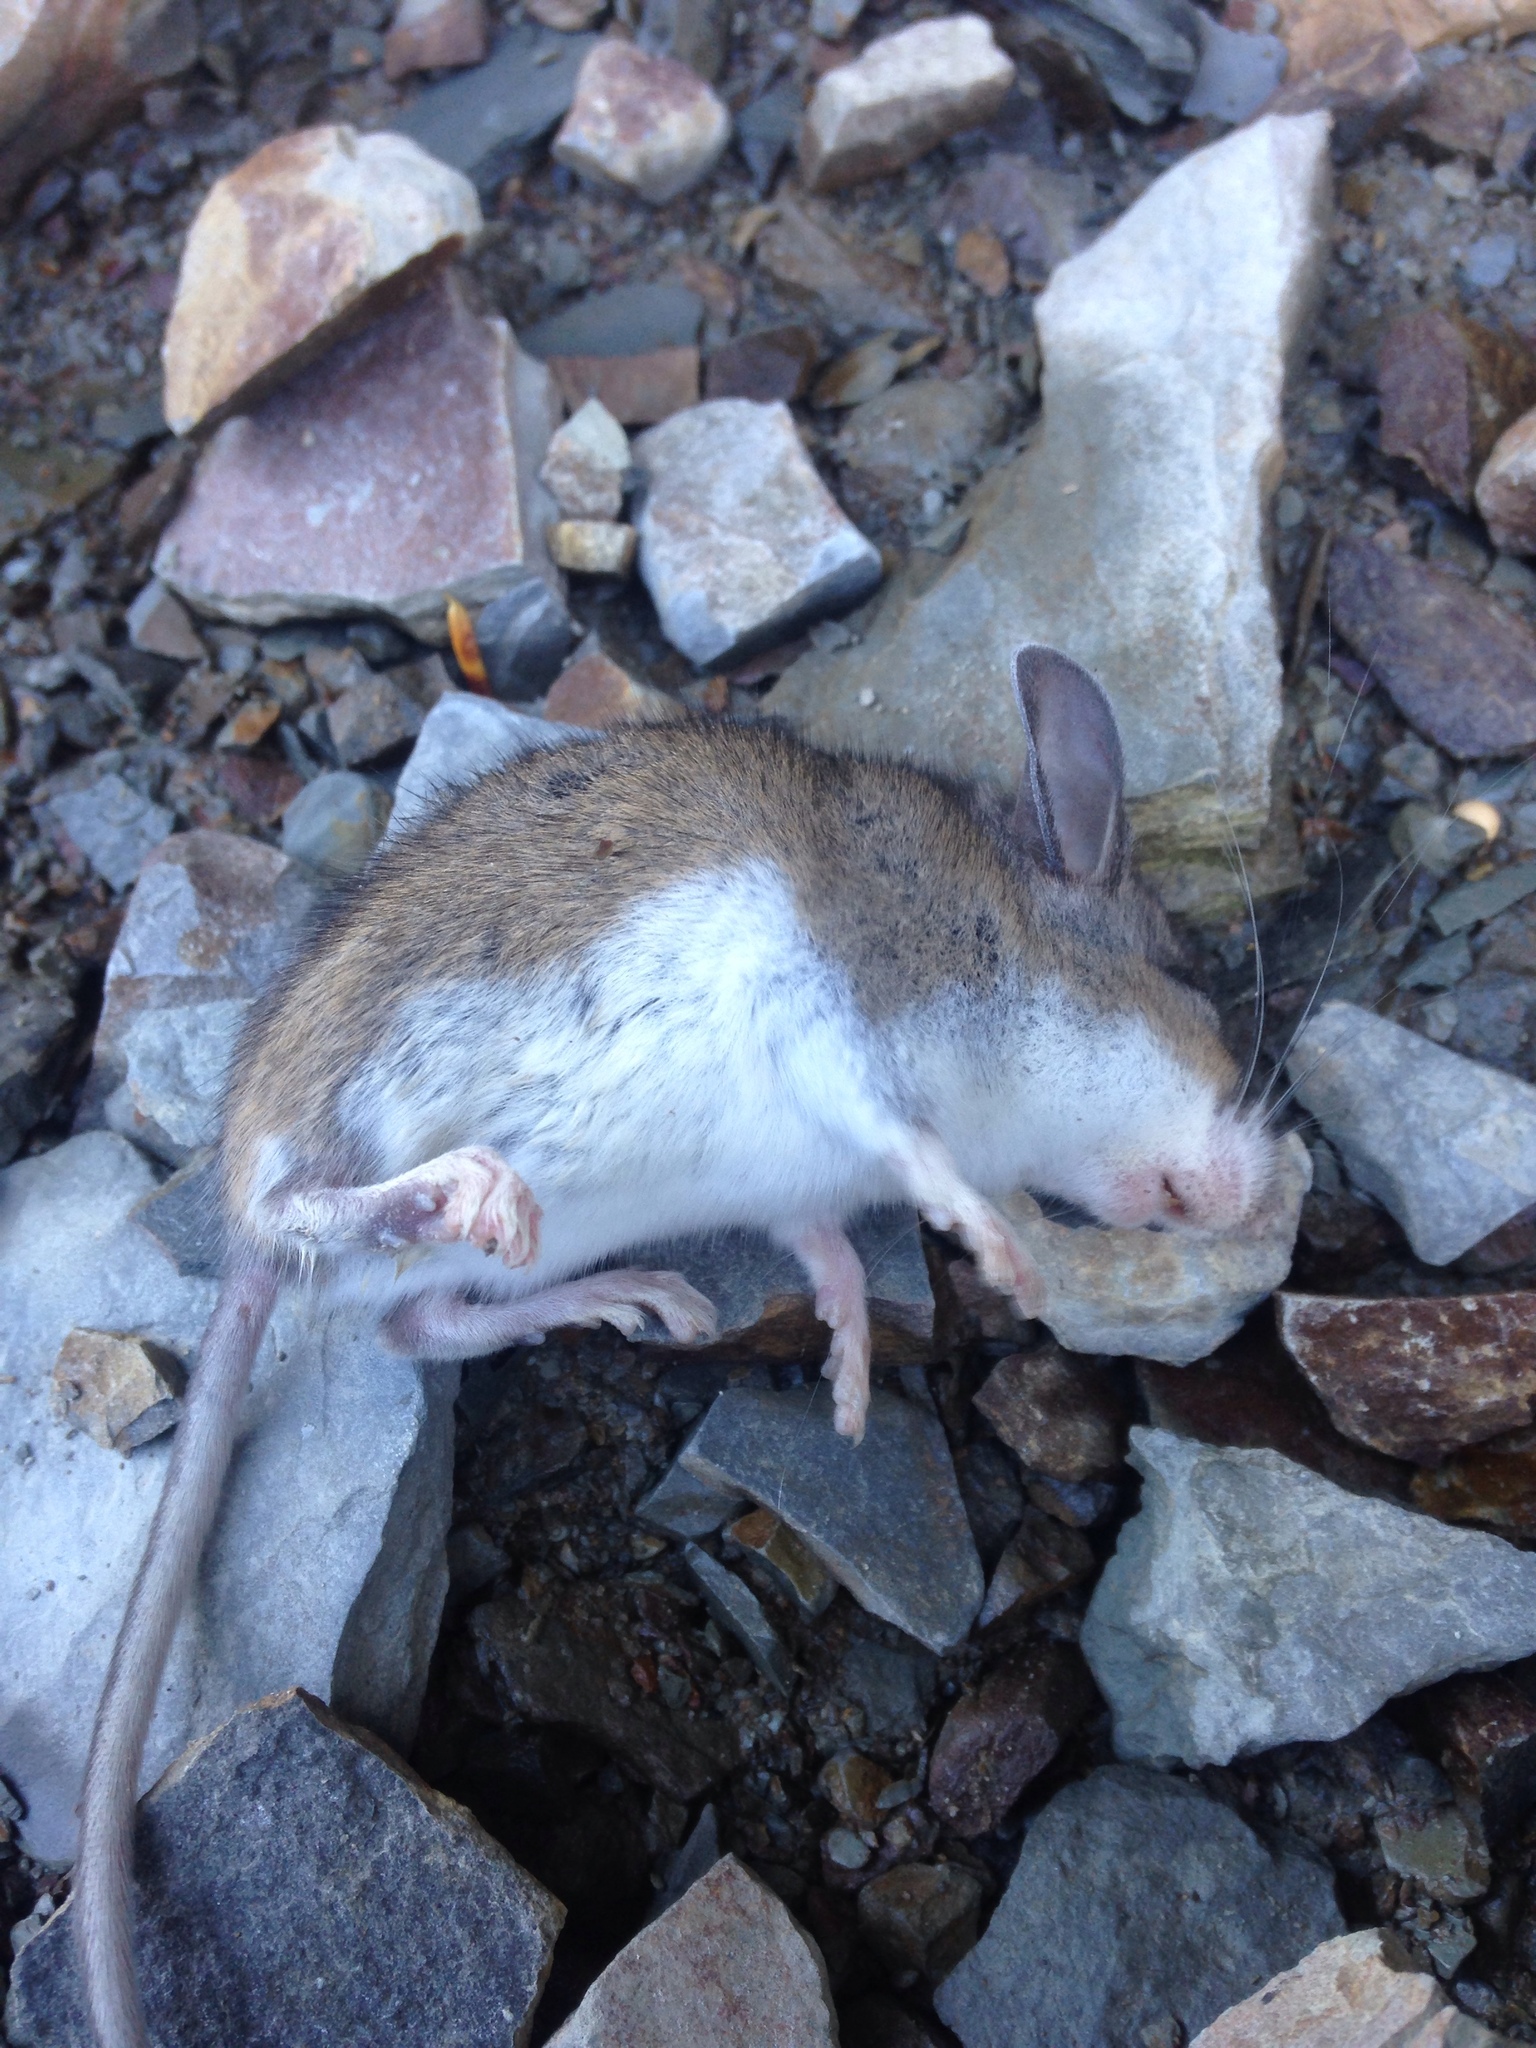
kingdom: Animalia
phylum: Chordata
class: Mammalia
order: Rodentia
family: Cricetidae
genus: Peromyscus
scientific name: Peromyscus maniculatus
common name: Deer mouse
